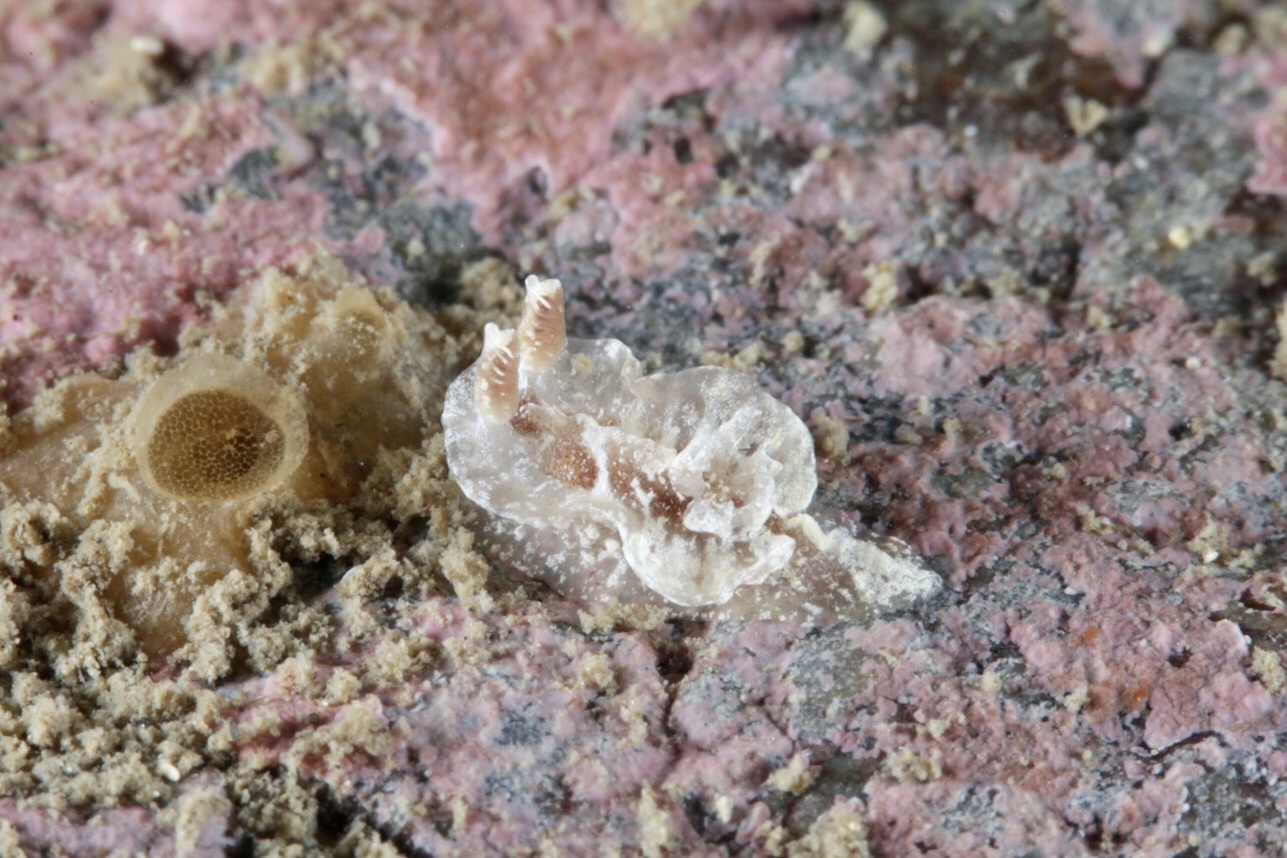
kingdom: Animalia
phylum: Mollusca
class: Gastropoda
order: Nudibranchia
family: Goniodorididae
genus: Pelagella
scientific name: Pelagella castanea
